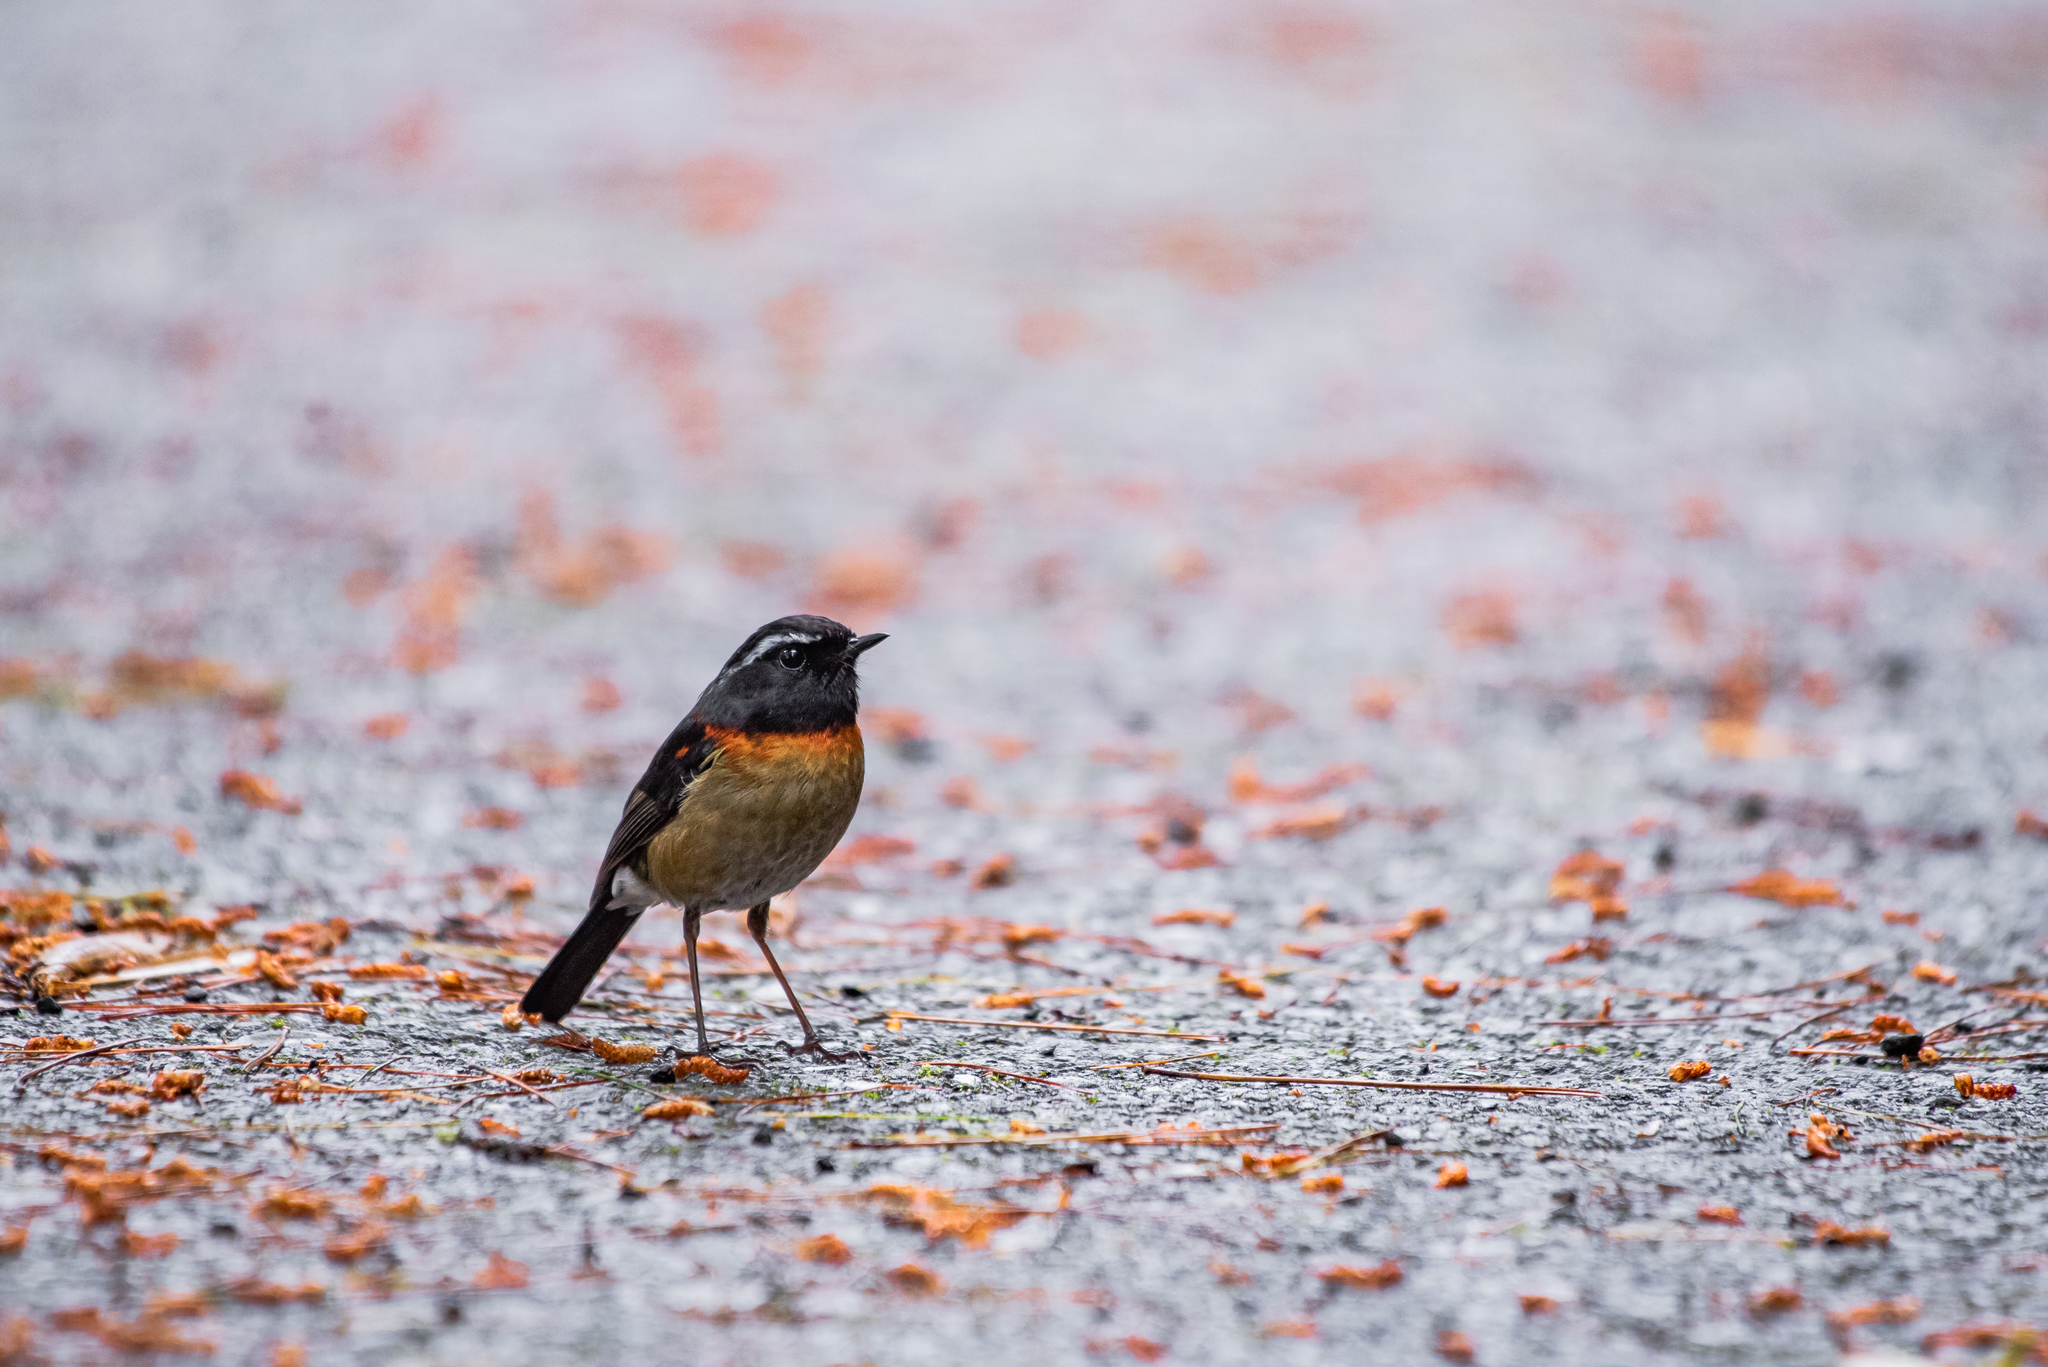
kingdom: Animalia
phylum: Chordata
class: Aves
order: Passeriformes
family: Muscicapidae
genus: Tarsiger
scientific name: Tarsiger johnstoniae
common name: Collared bush robin
